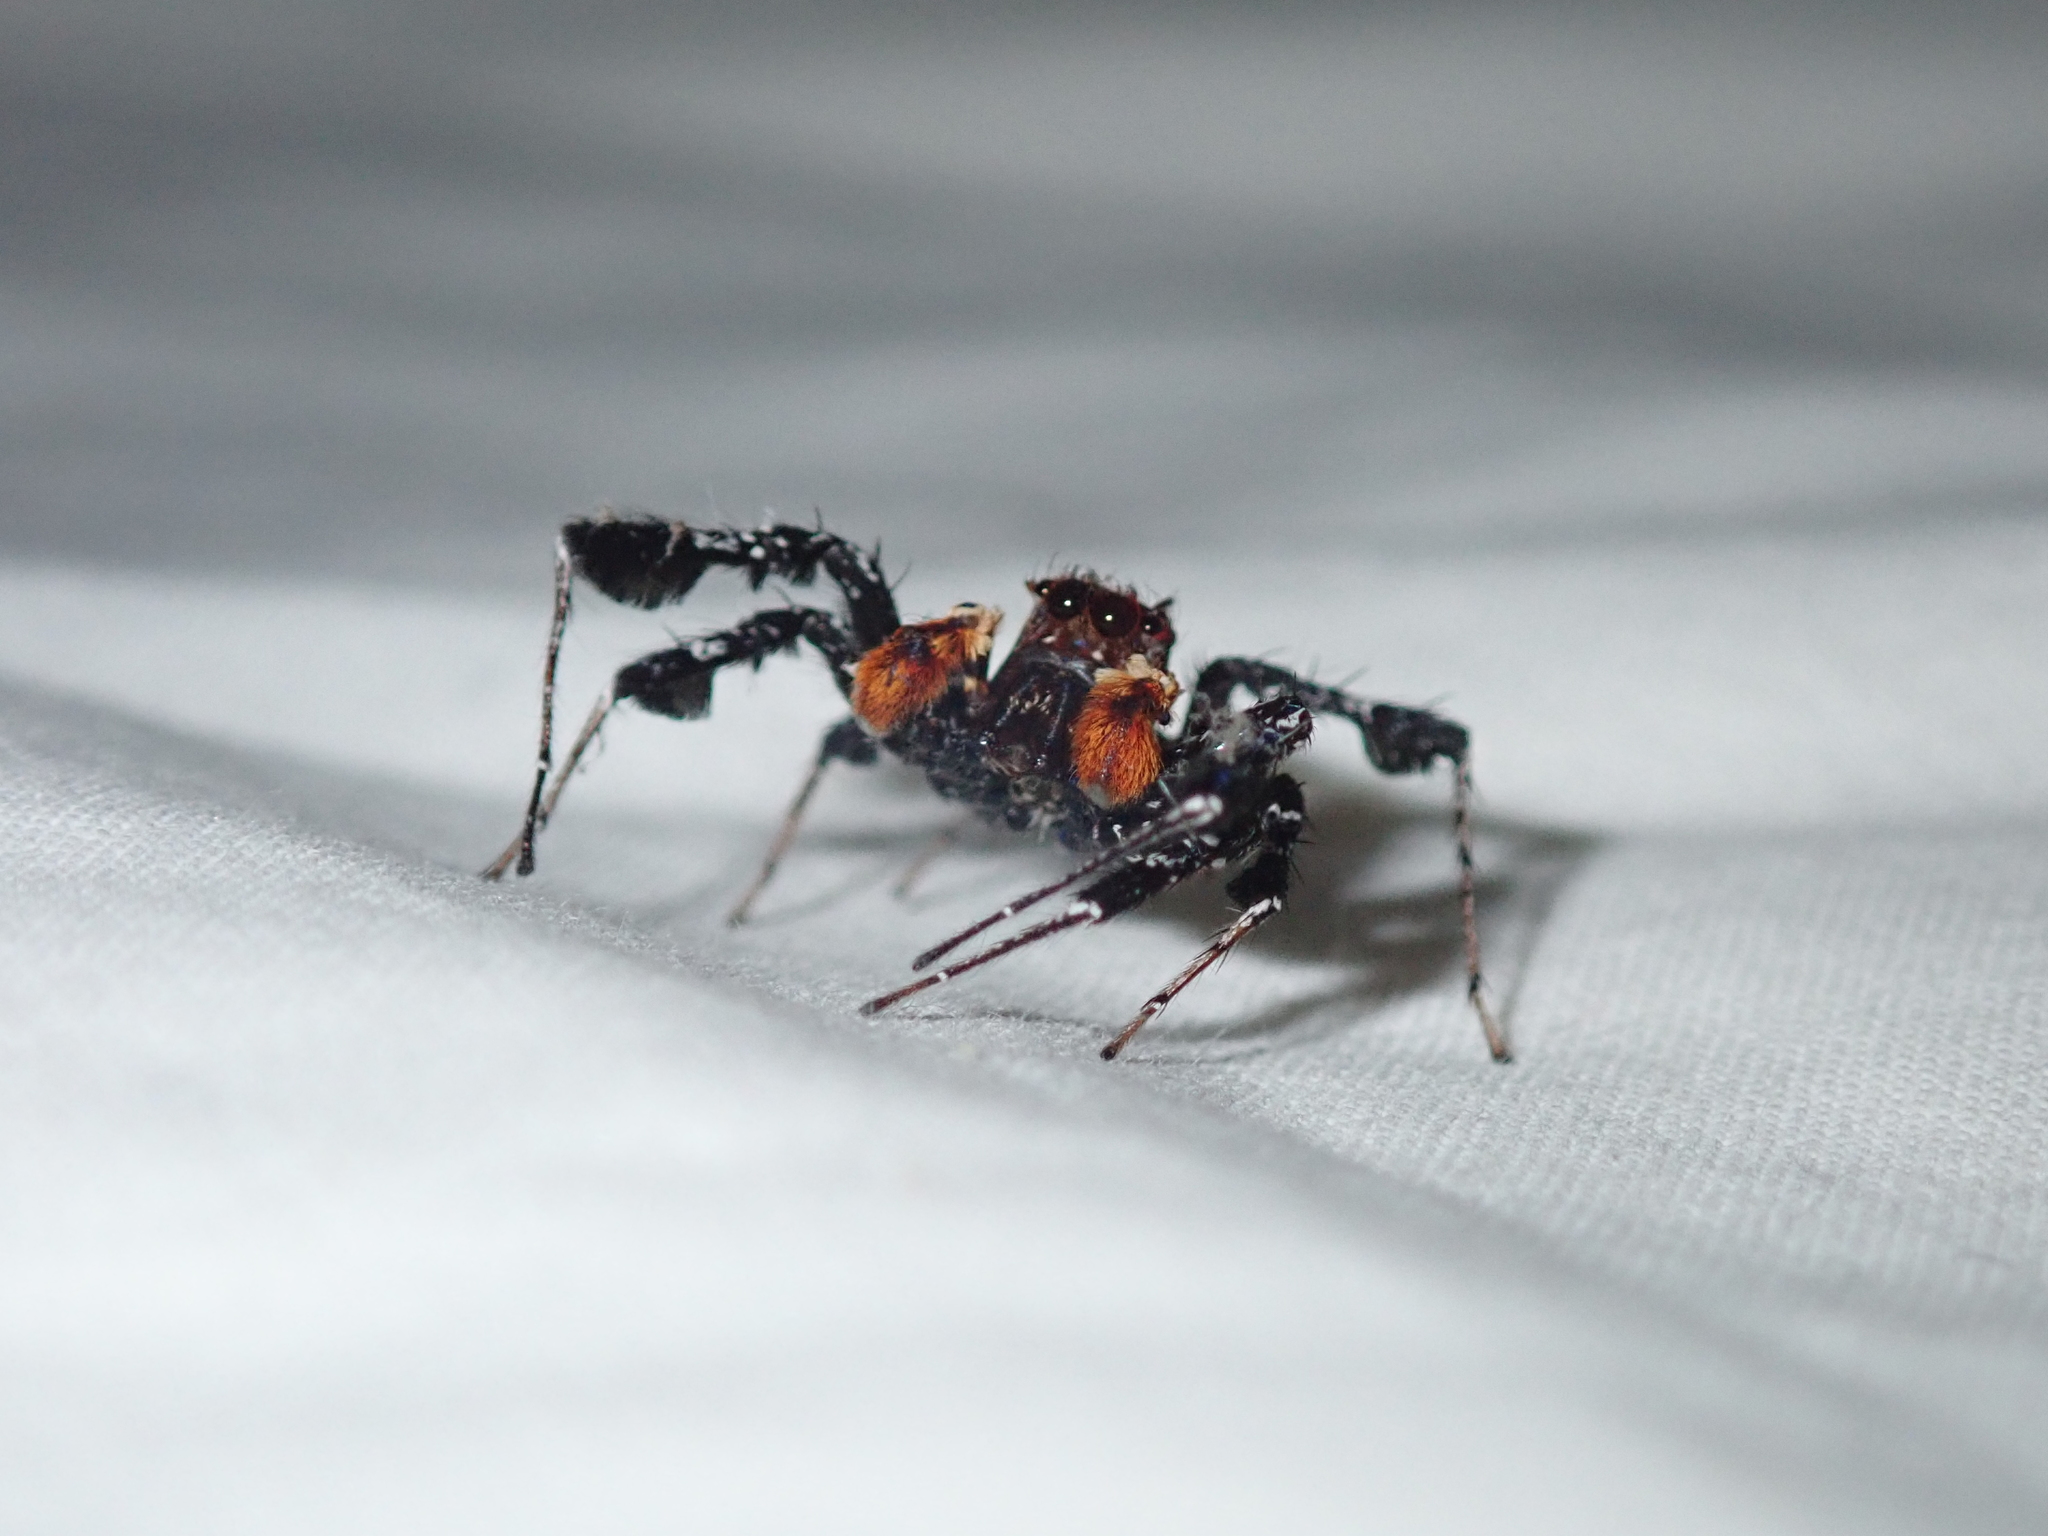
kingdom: Animalia
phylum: Arthropoda
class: Arachnida
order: Araneae
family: Salticidae
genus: Portia
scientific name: Portia schultzi
